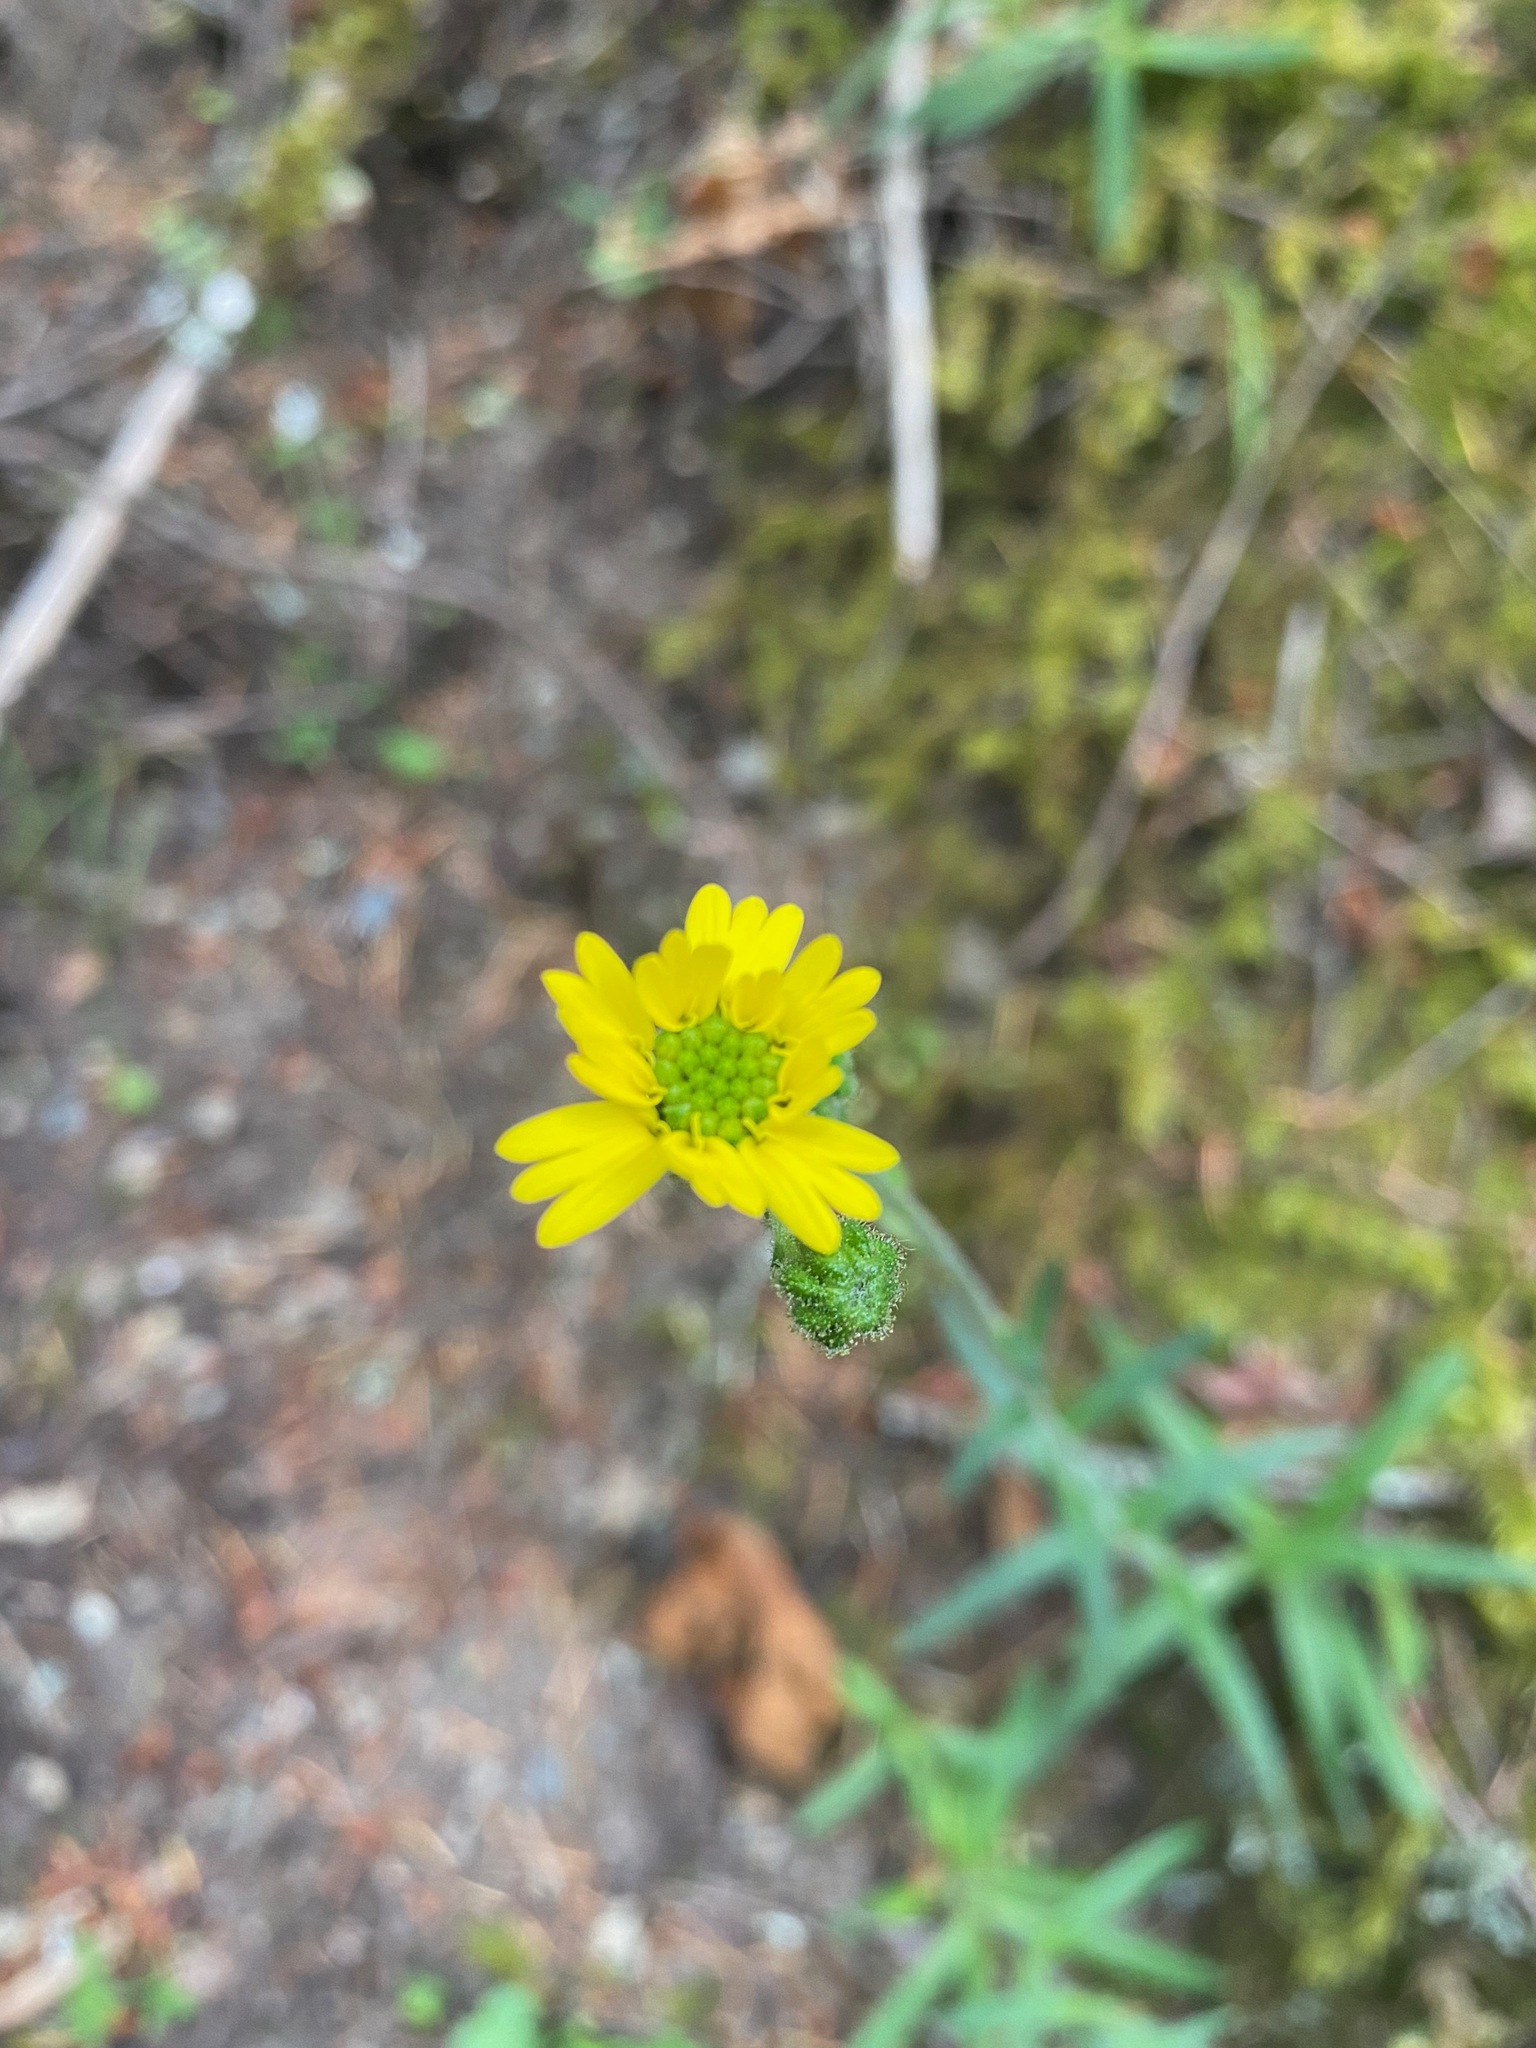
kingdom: Plantae
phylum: Tracheophyta
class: Magnoliopsida
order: Asterales
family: Asteraceae
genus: Anisocarpus
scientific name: Anisocarpus madioides
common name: Woodland madia
